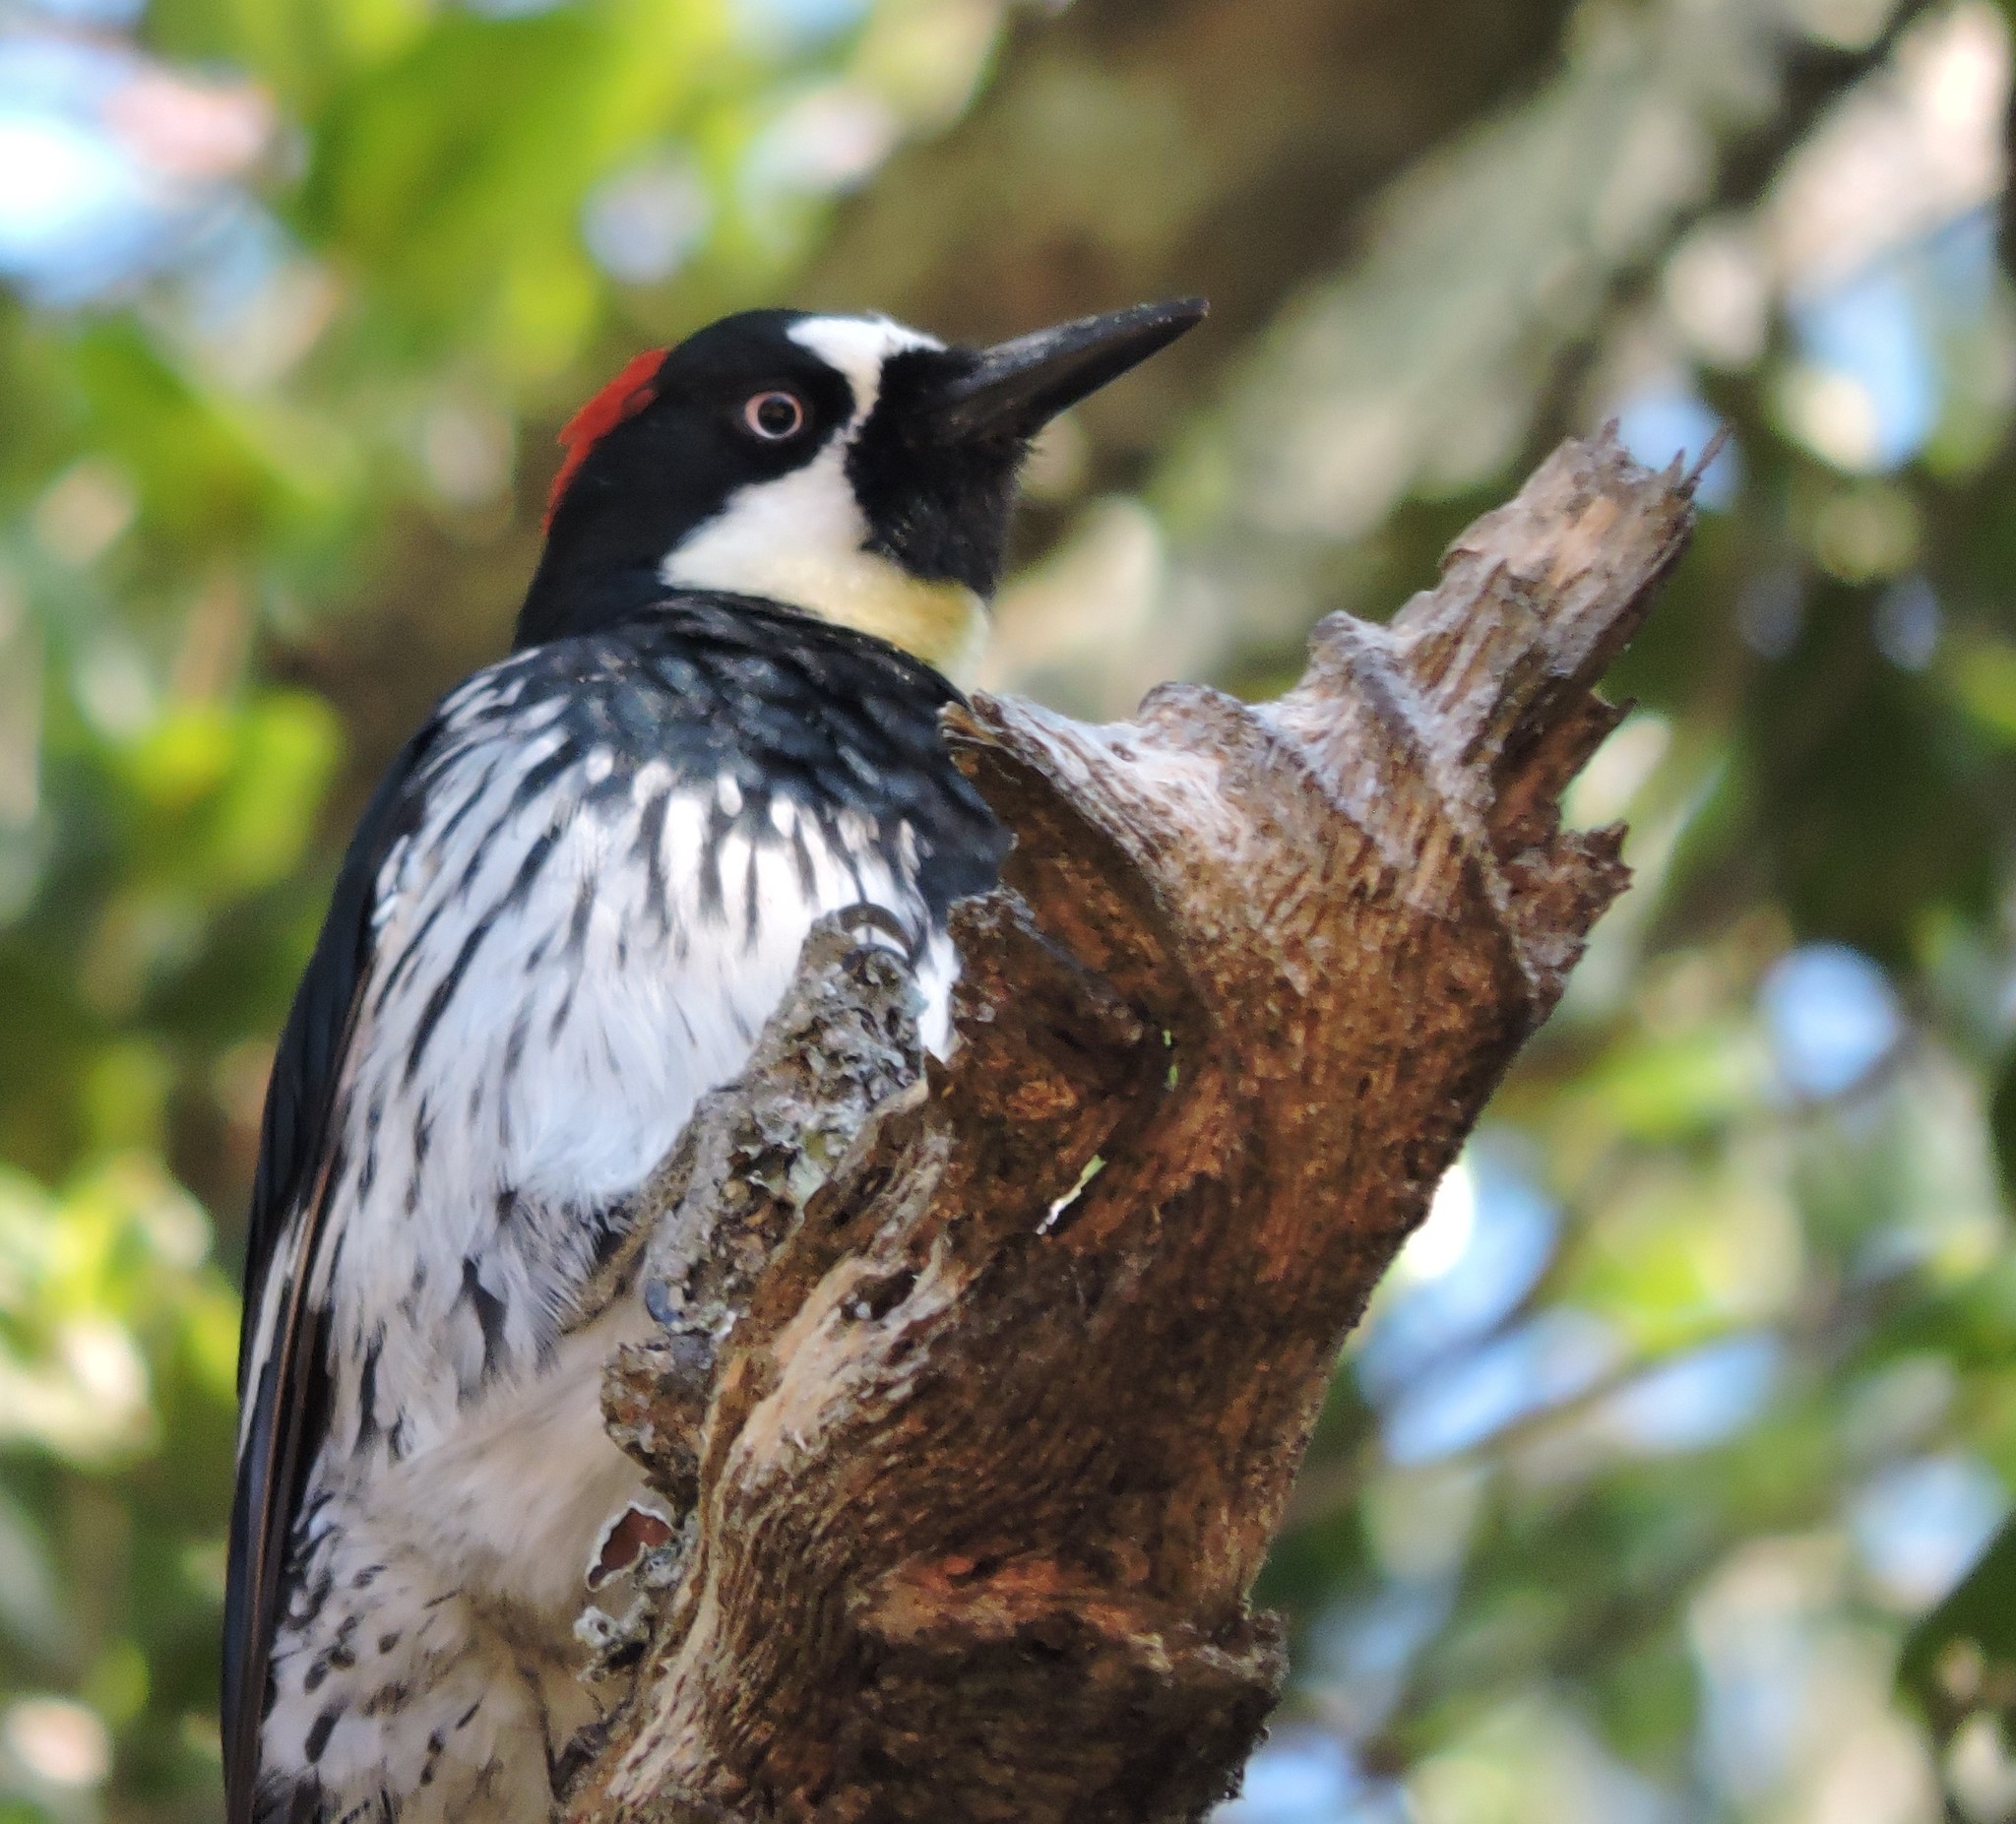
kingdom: Animalia
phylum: Chordata
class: Aves
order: Piciformes
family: Picidae
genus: Melanerpes
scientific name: Melanerpes formicivorus
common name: Acorn woodpecker
